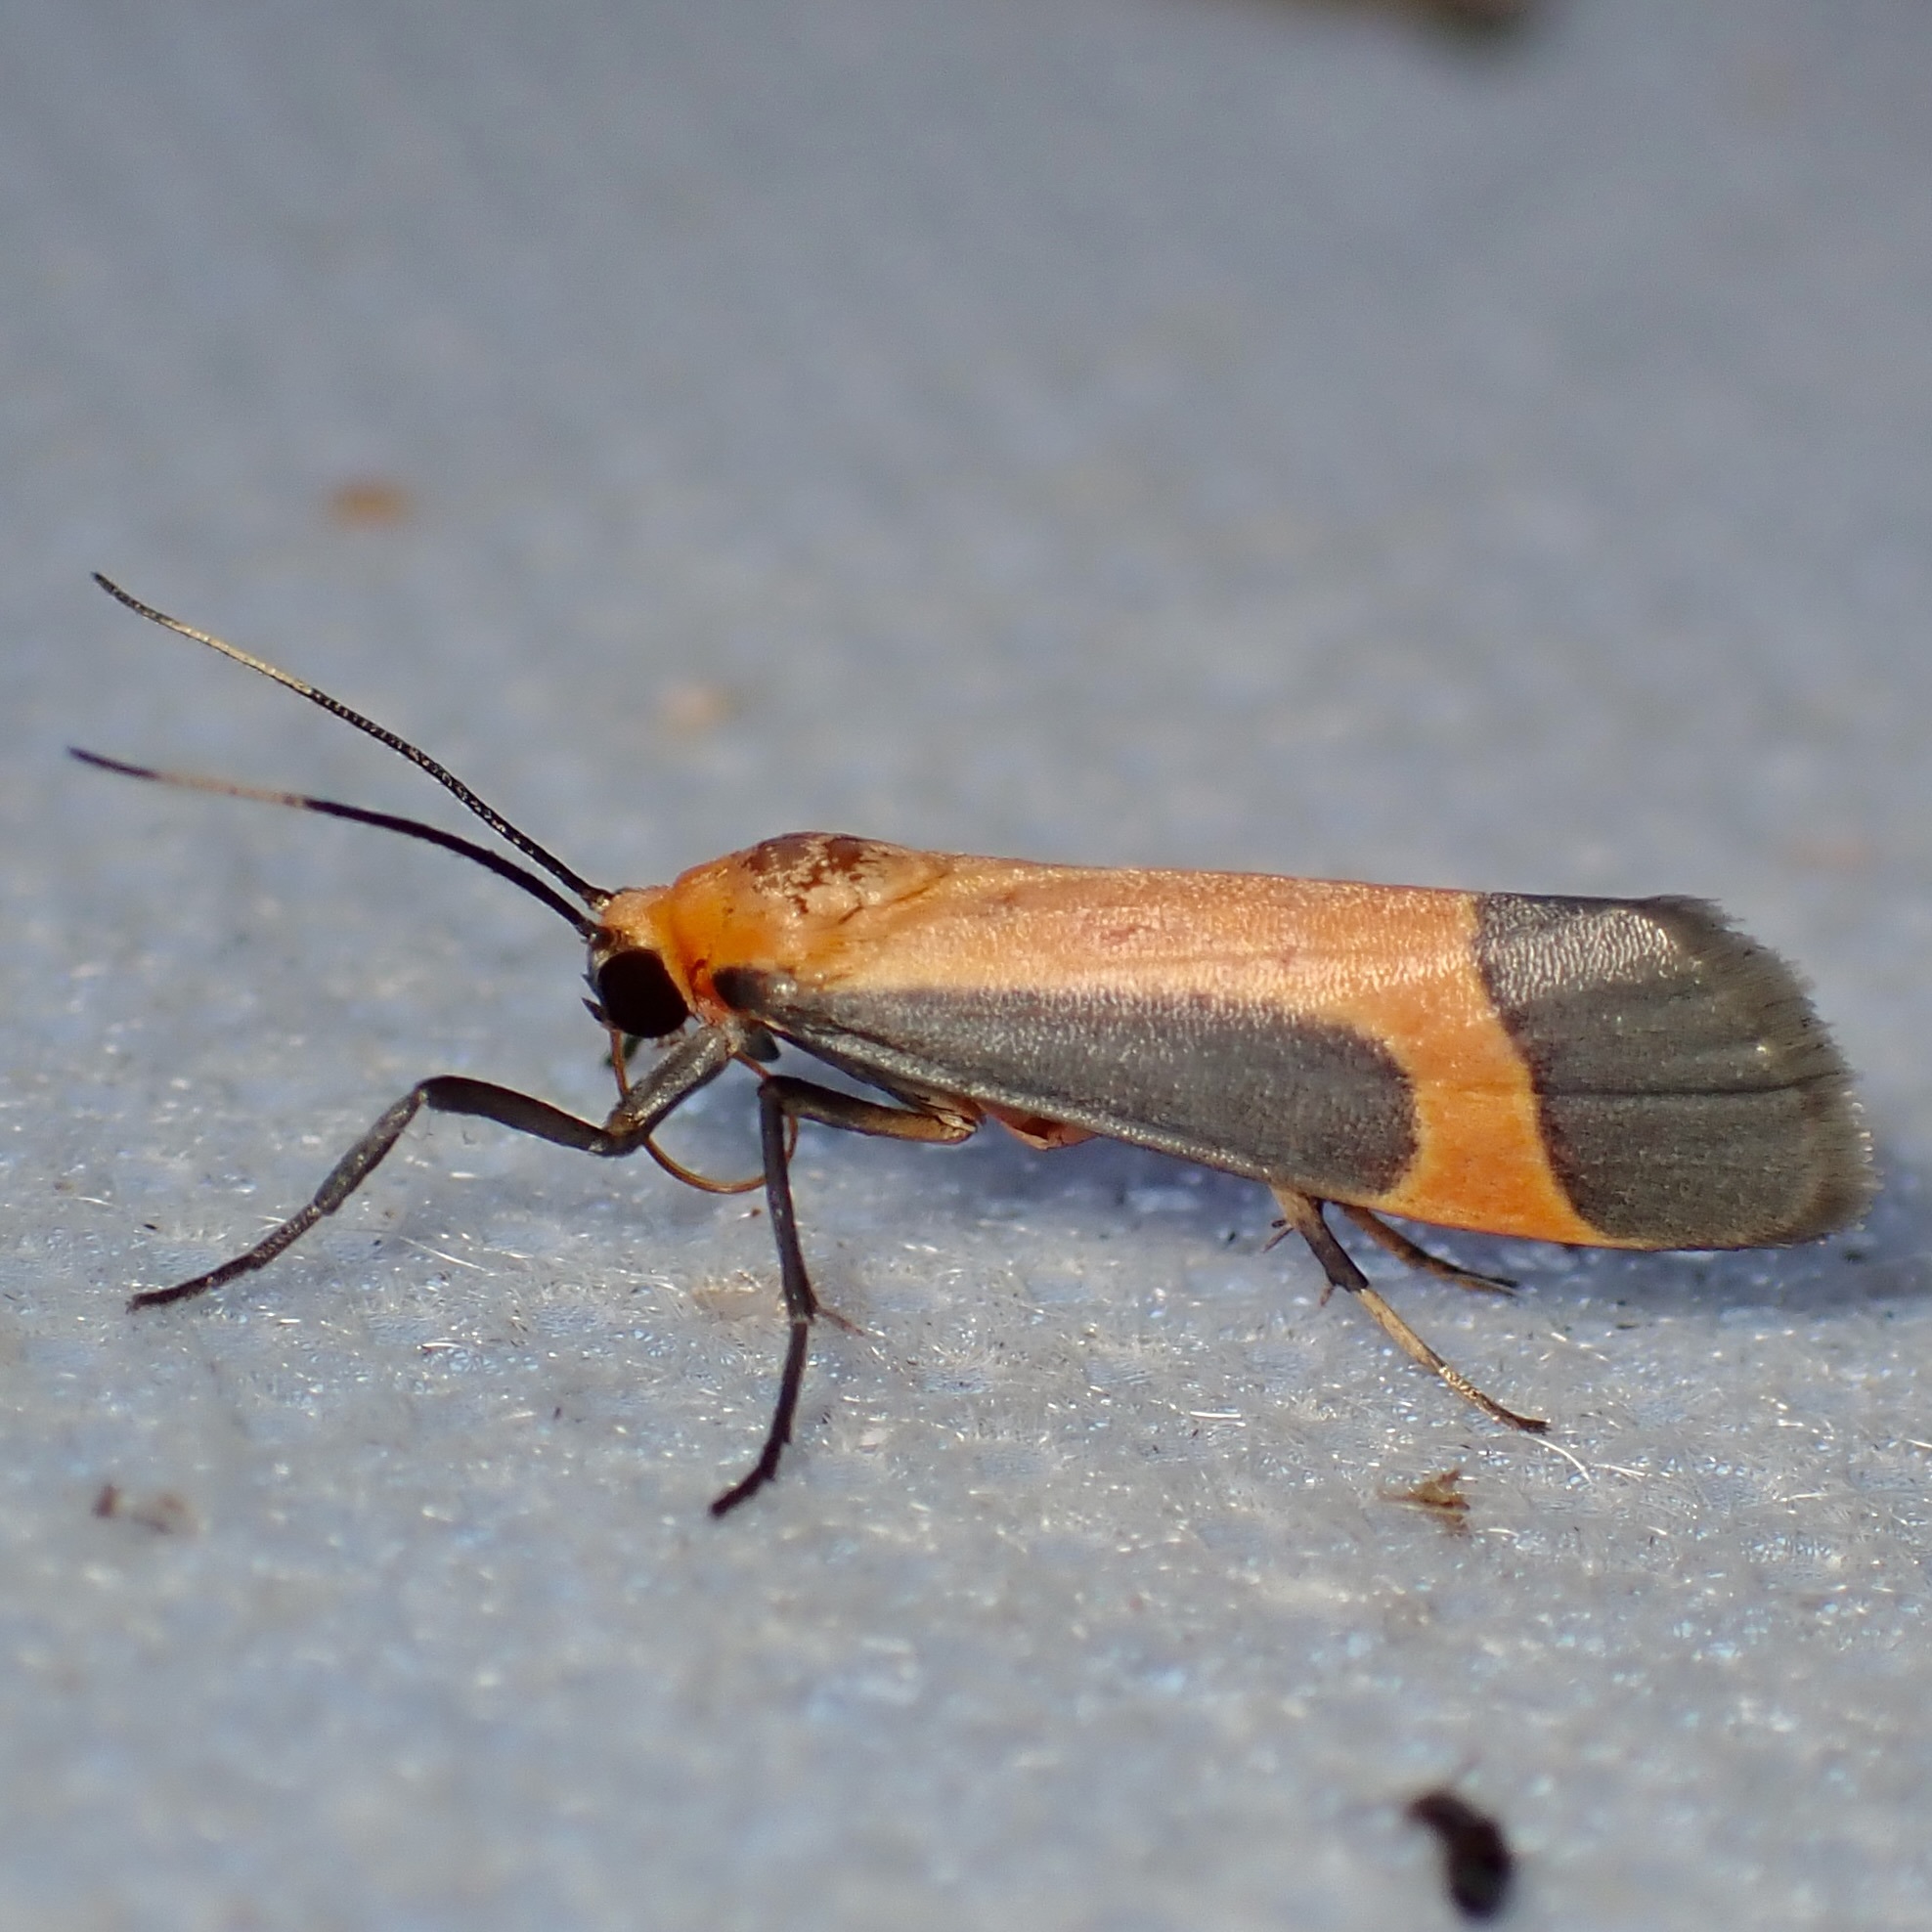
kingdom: Animalia
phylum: Arthropoda
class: Insecta
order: Lepidoptera
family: Erebidae
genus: Cisthene
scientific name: Cisthene angelus
